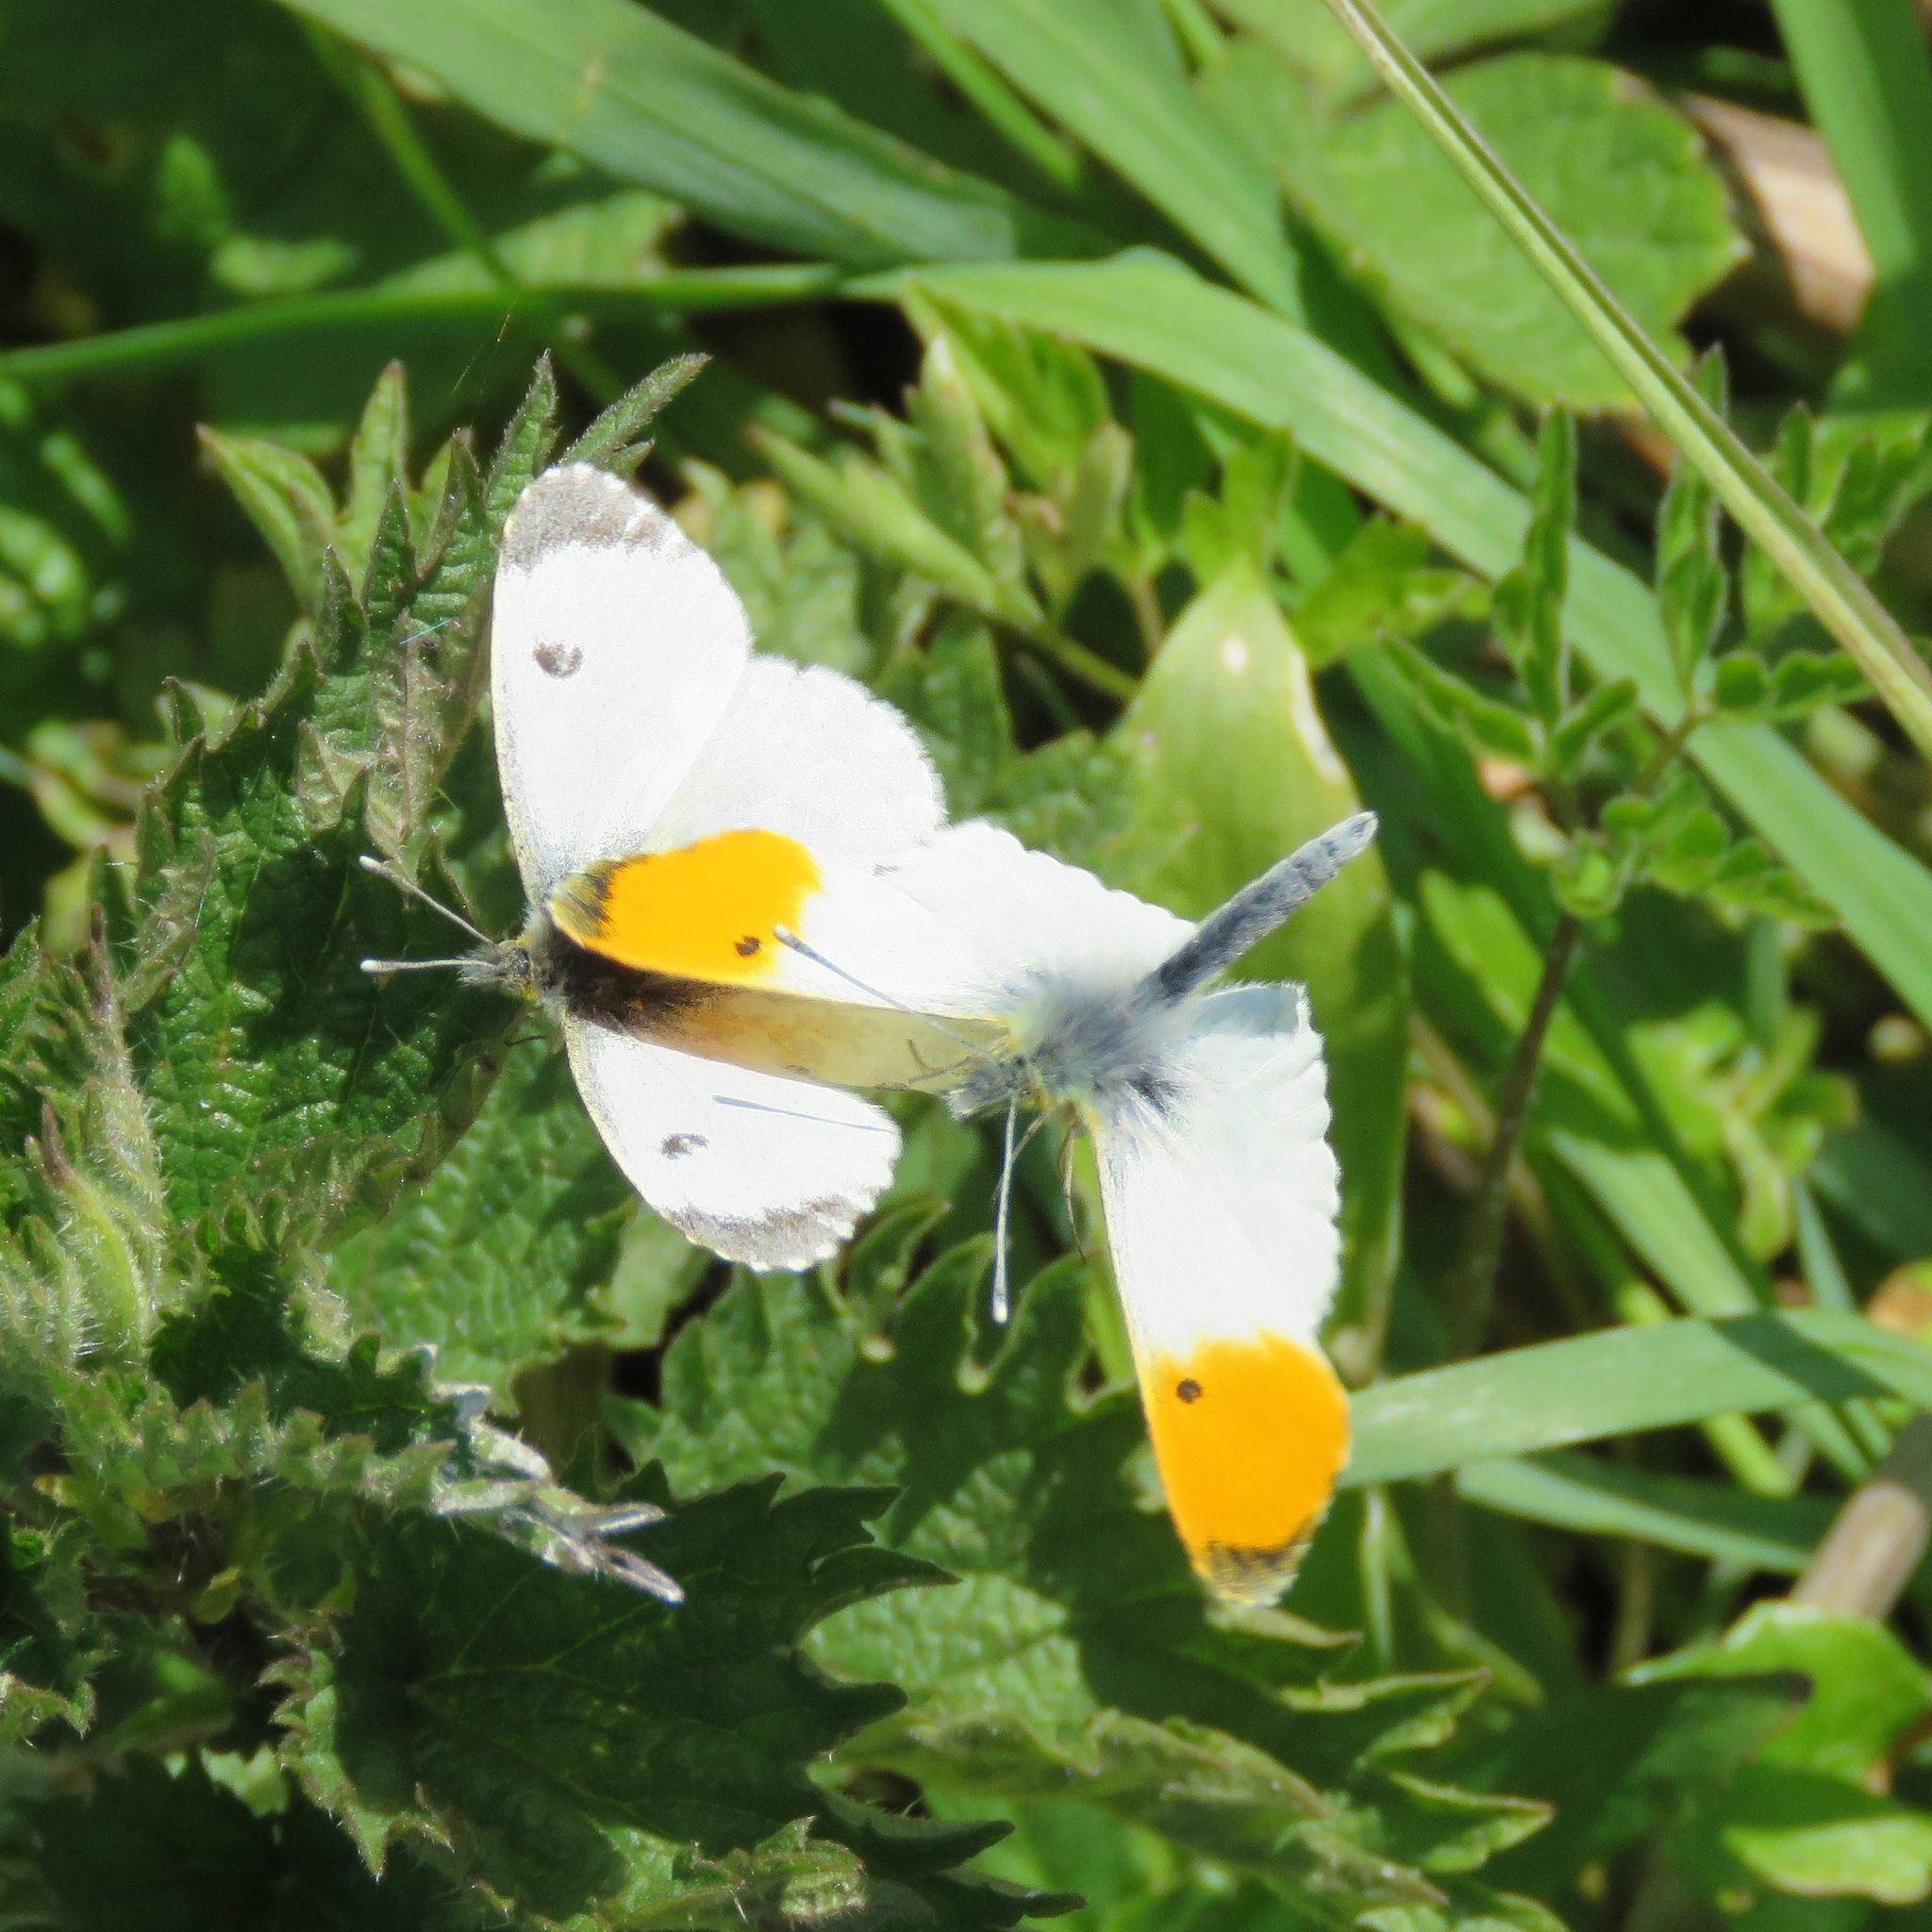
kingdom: Animalia
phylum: Arthropoda
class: Insecta
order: Lepidoptera
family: Pieridae
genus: Anthocharis
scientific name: Anthocharis cardamines
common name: Orange-tip
